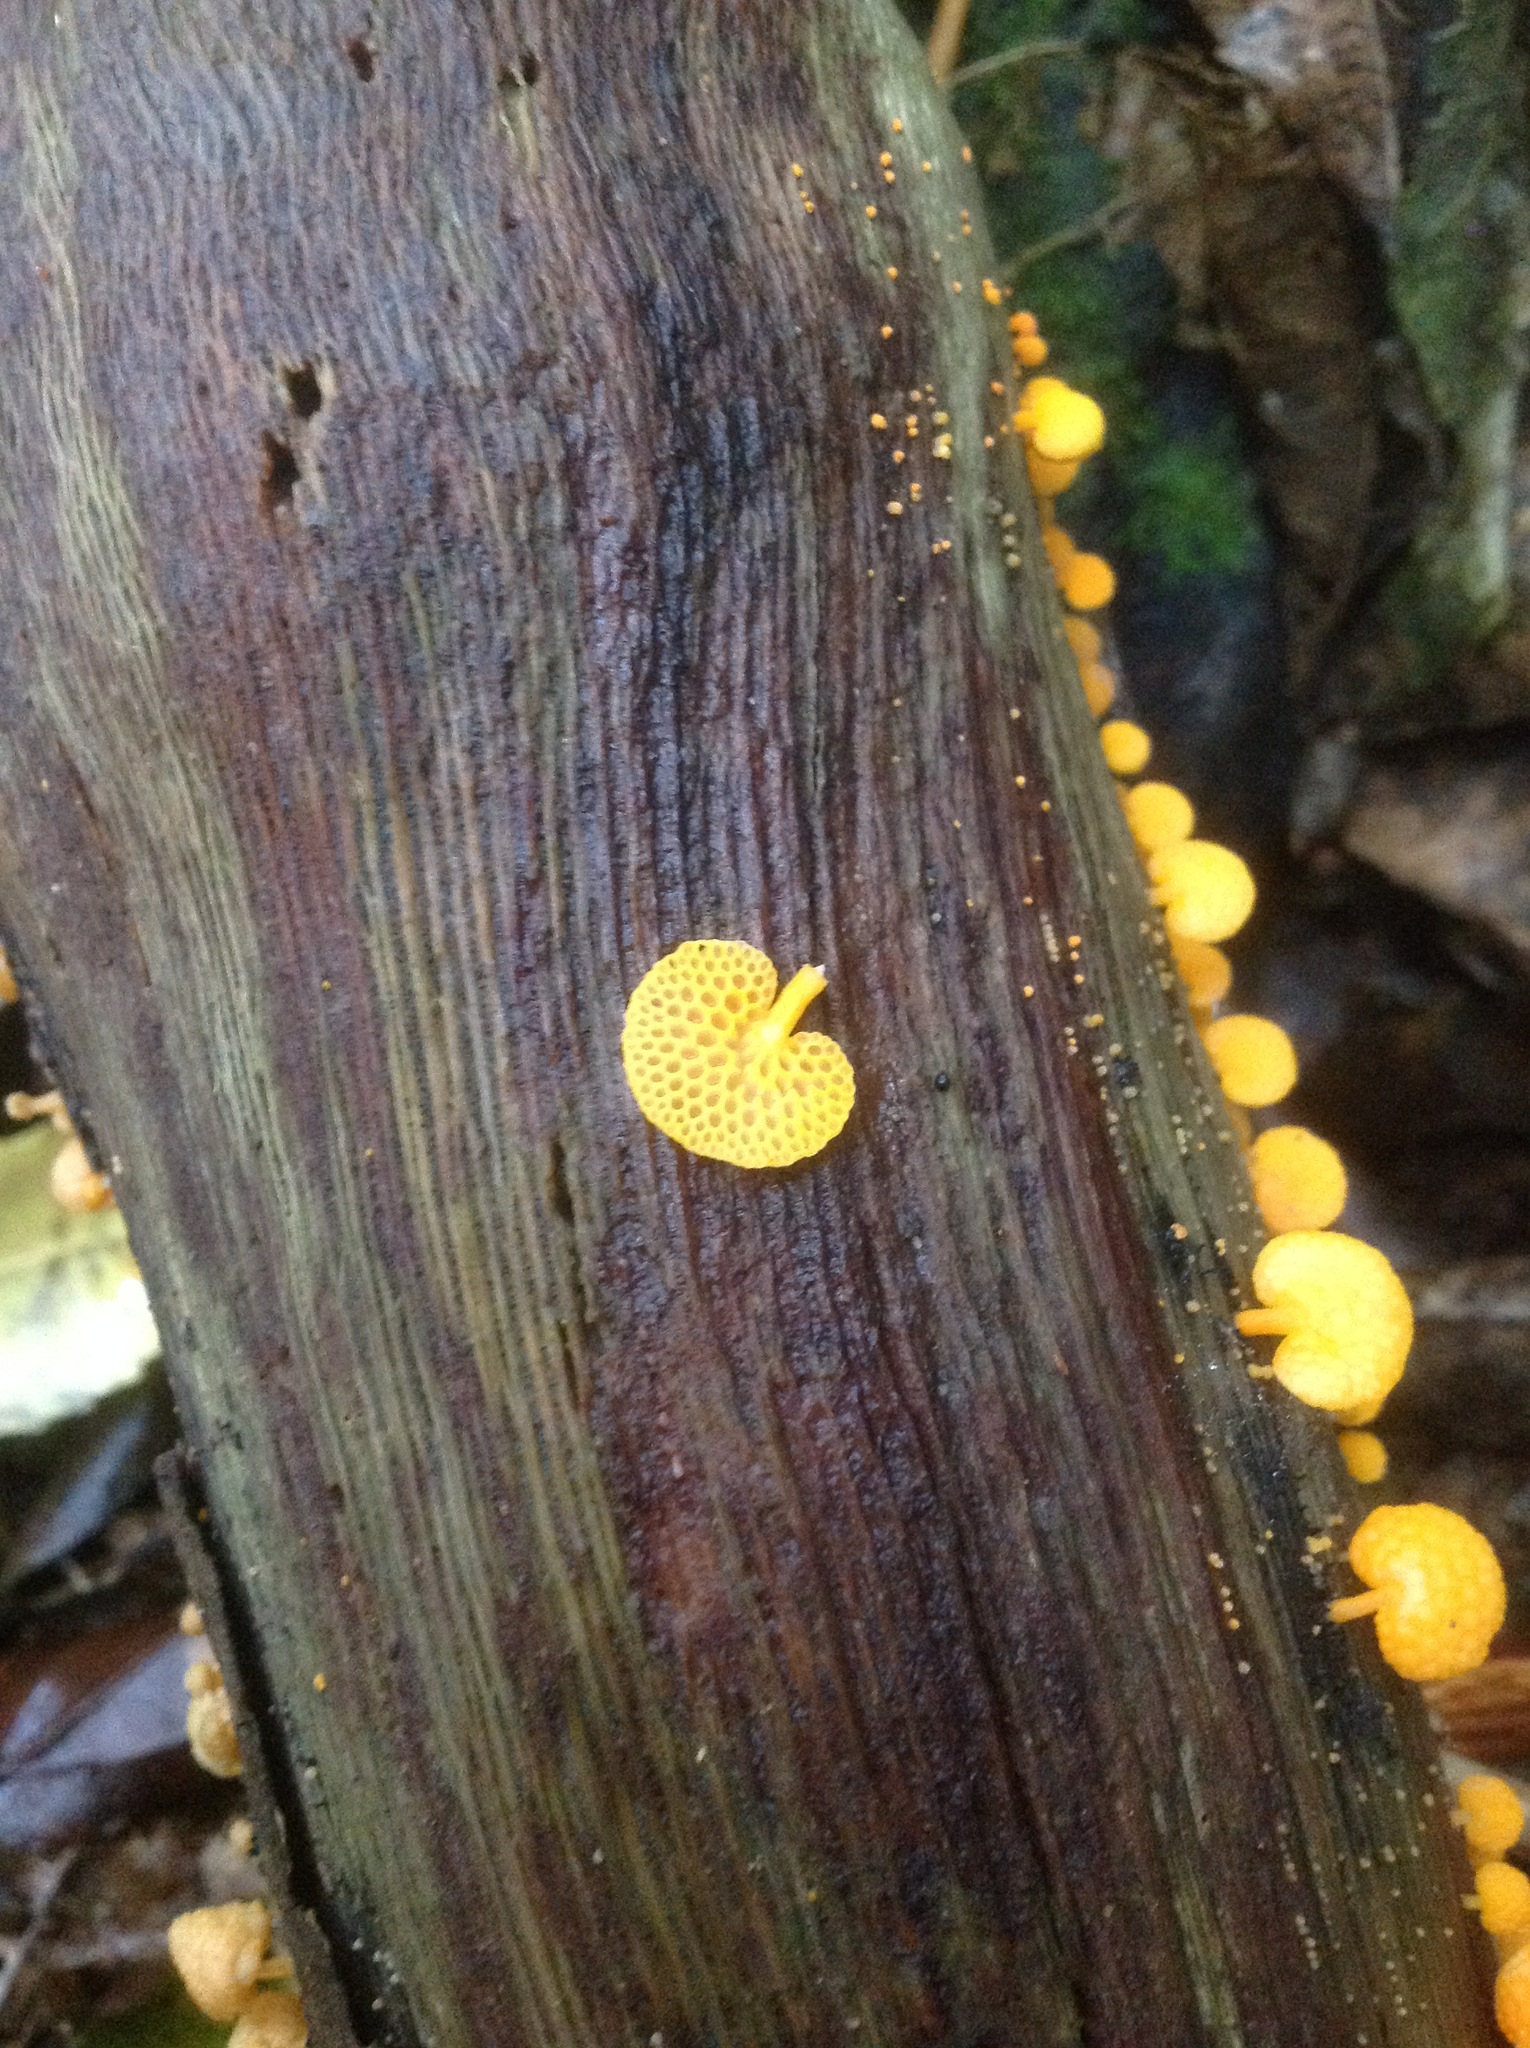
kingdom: Fungi
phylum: Basidiomycota
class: Agaricomycetes
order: Agaricales
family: Mycenaceae
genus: Favolaschia
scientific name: Favolaschia claudopus
